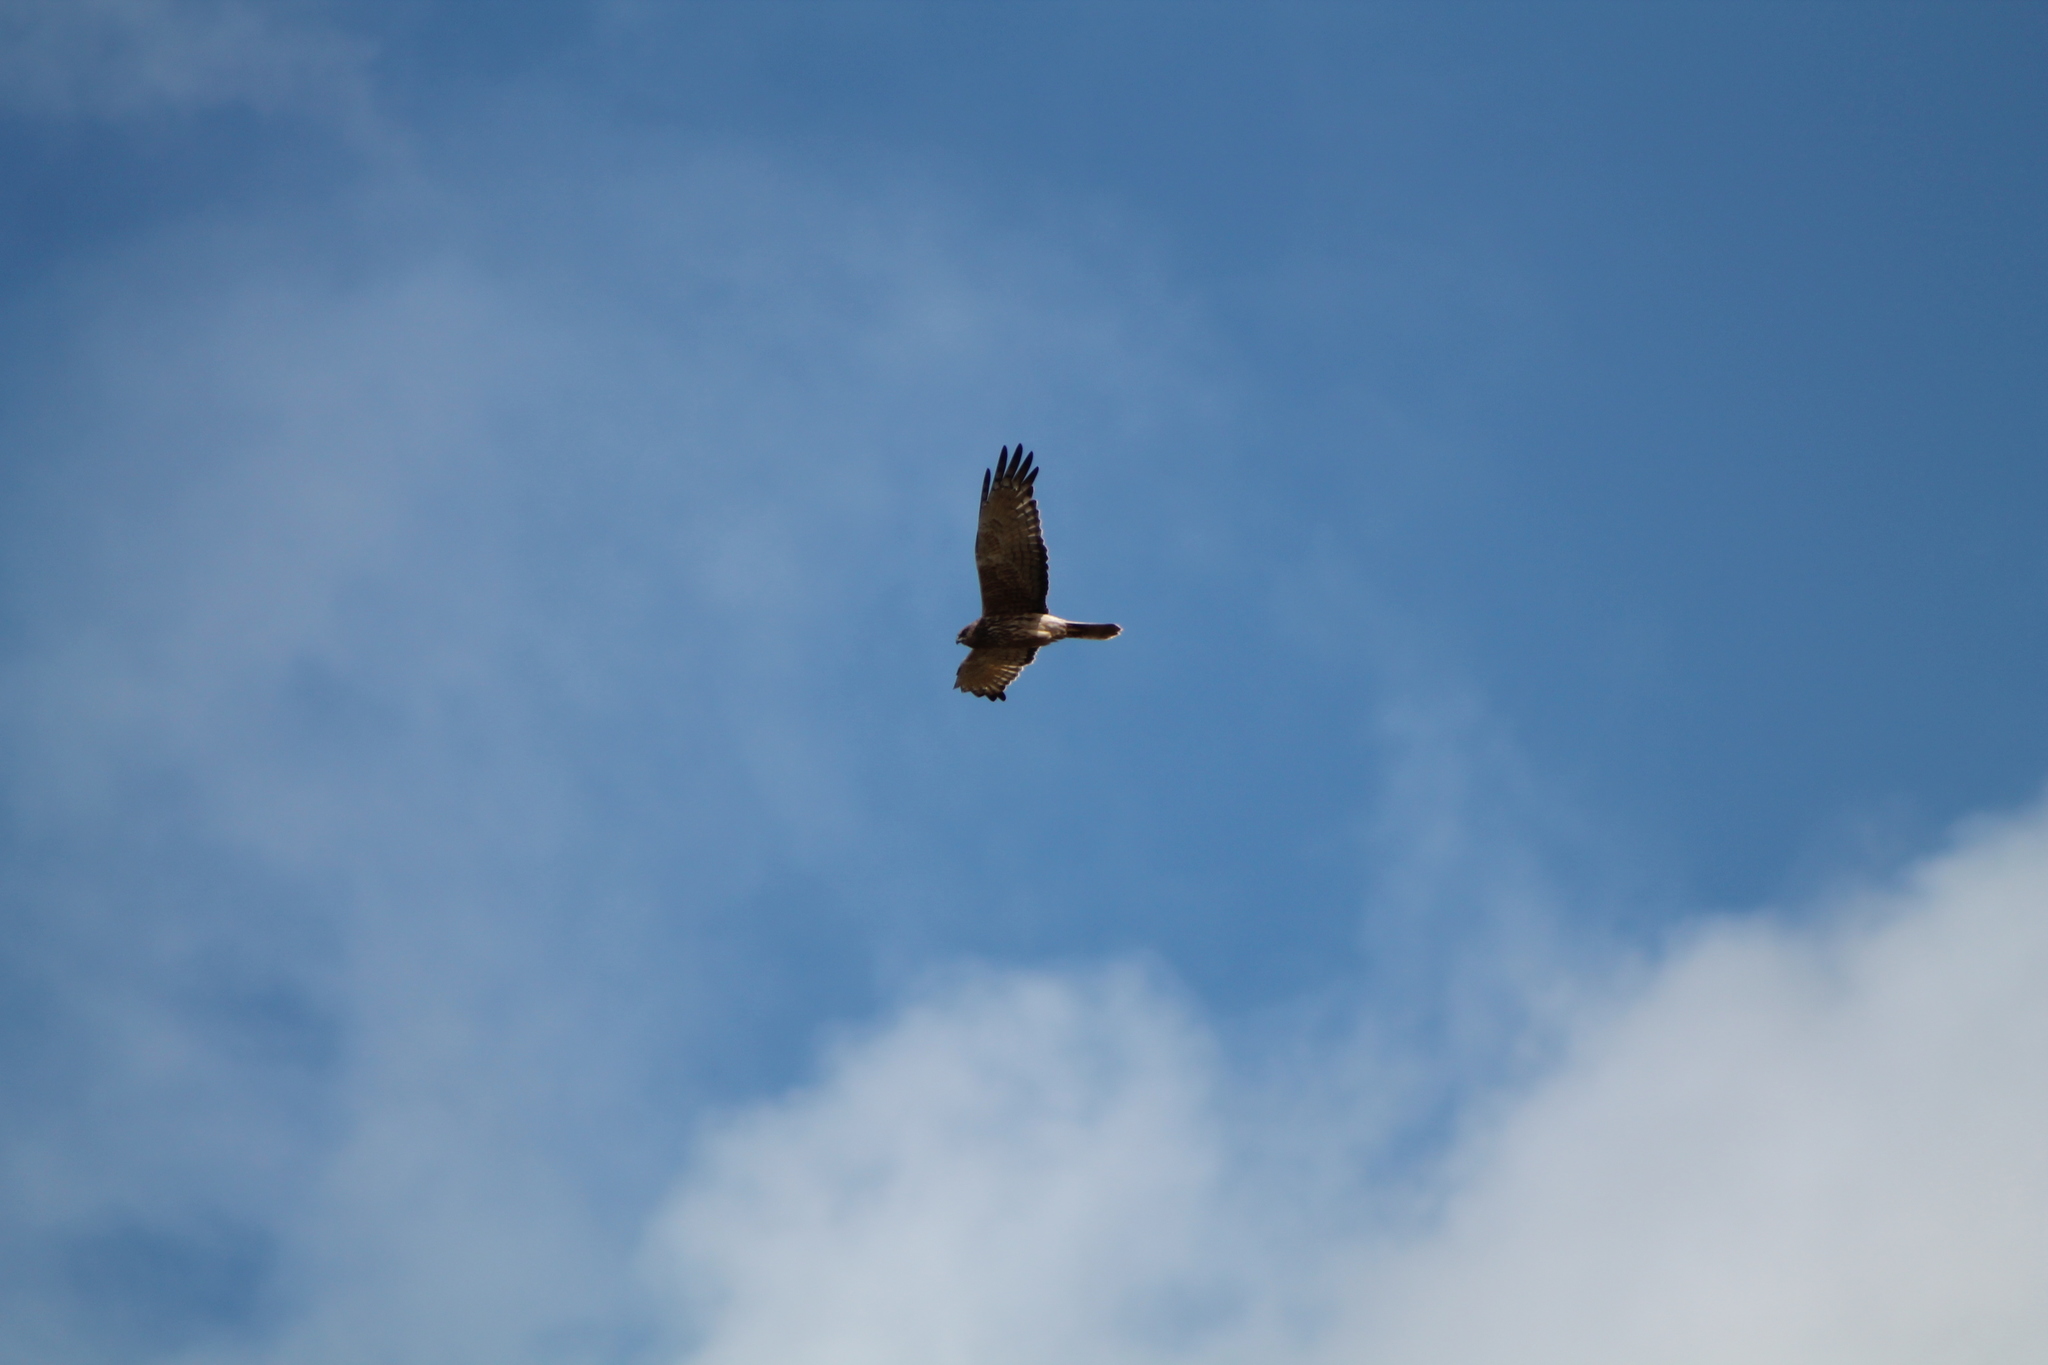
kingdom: Animalia
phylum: Chordata
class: Aves
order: Accipitriformes
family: Accipitridae
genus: Circus
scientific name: Circus approximans
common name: Swamp harrier
